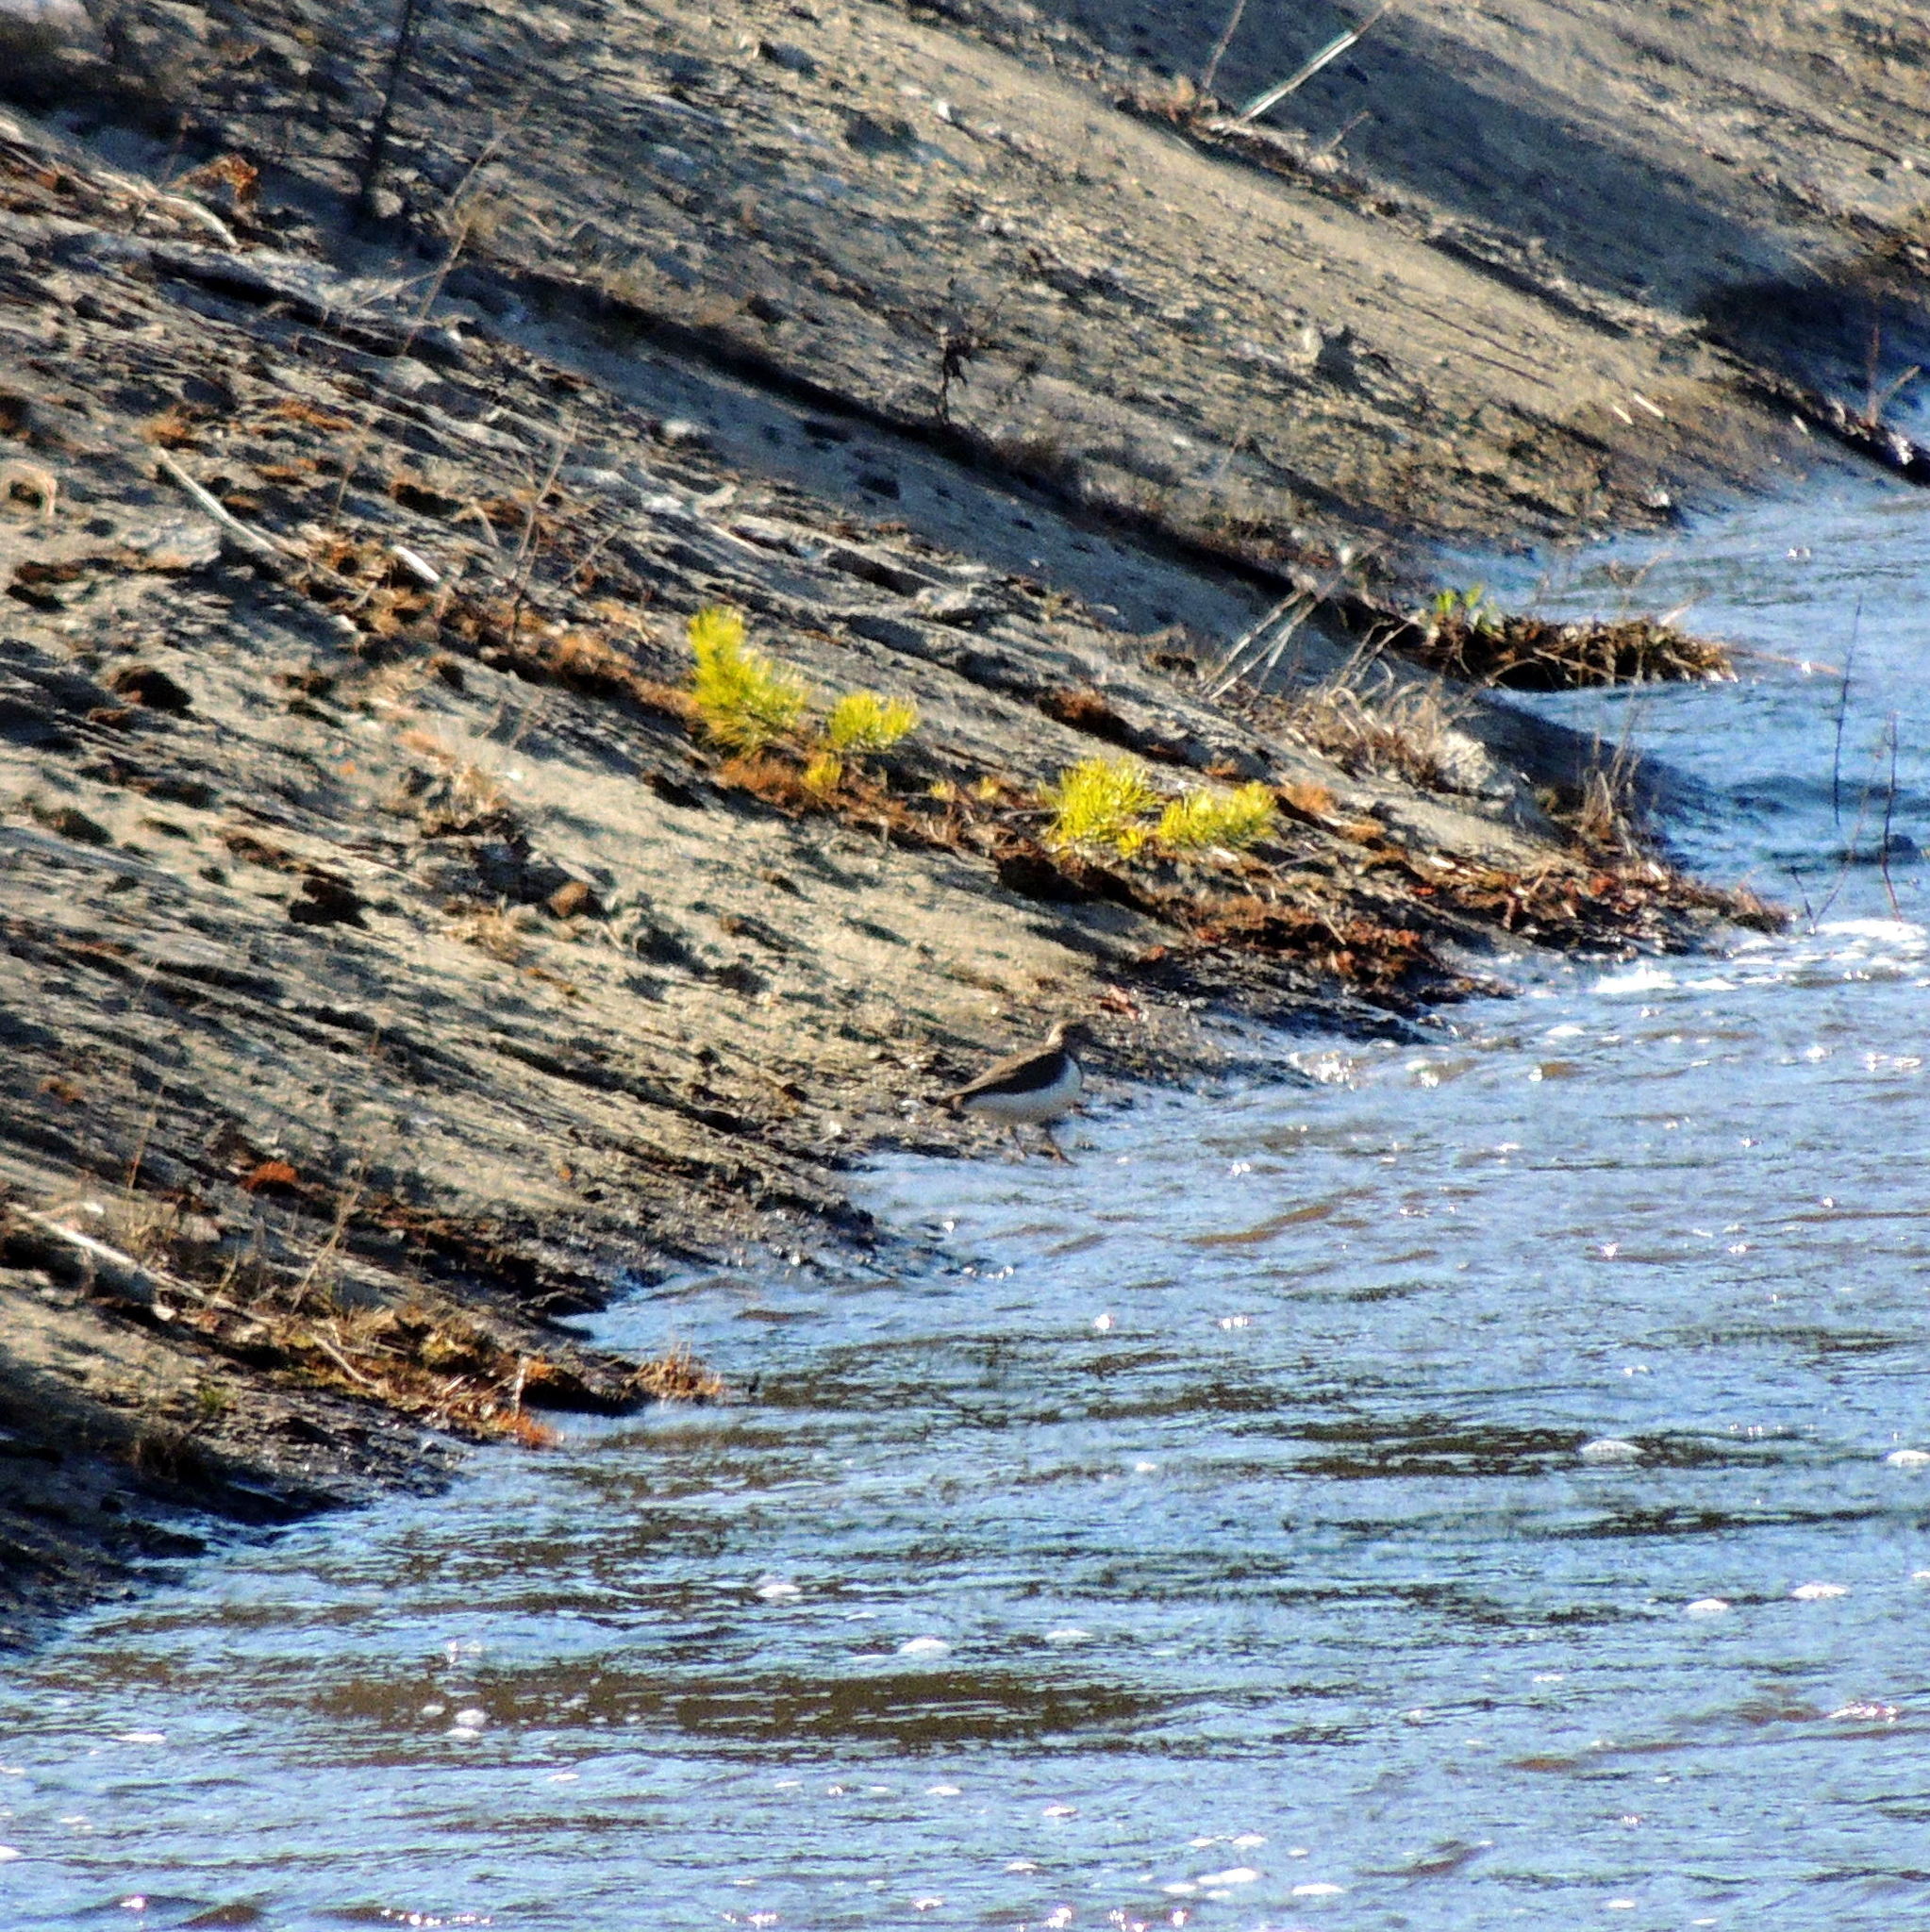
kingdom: Animalia
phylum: Chordata
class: Aves
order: Charadriiformes
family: Scolopacidae
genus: Actitis
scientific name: Actitis hypoleucos
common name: Common sandpiper
